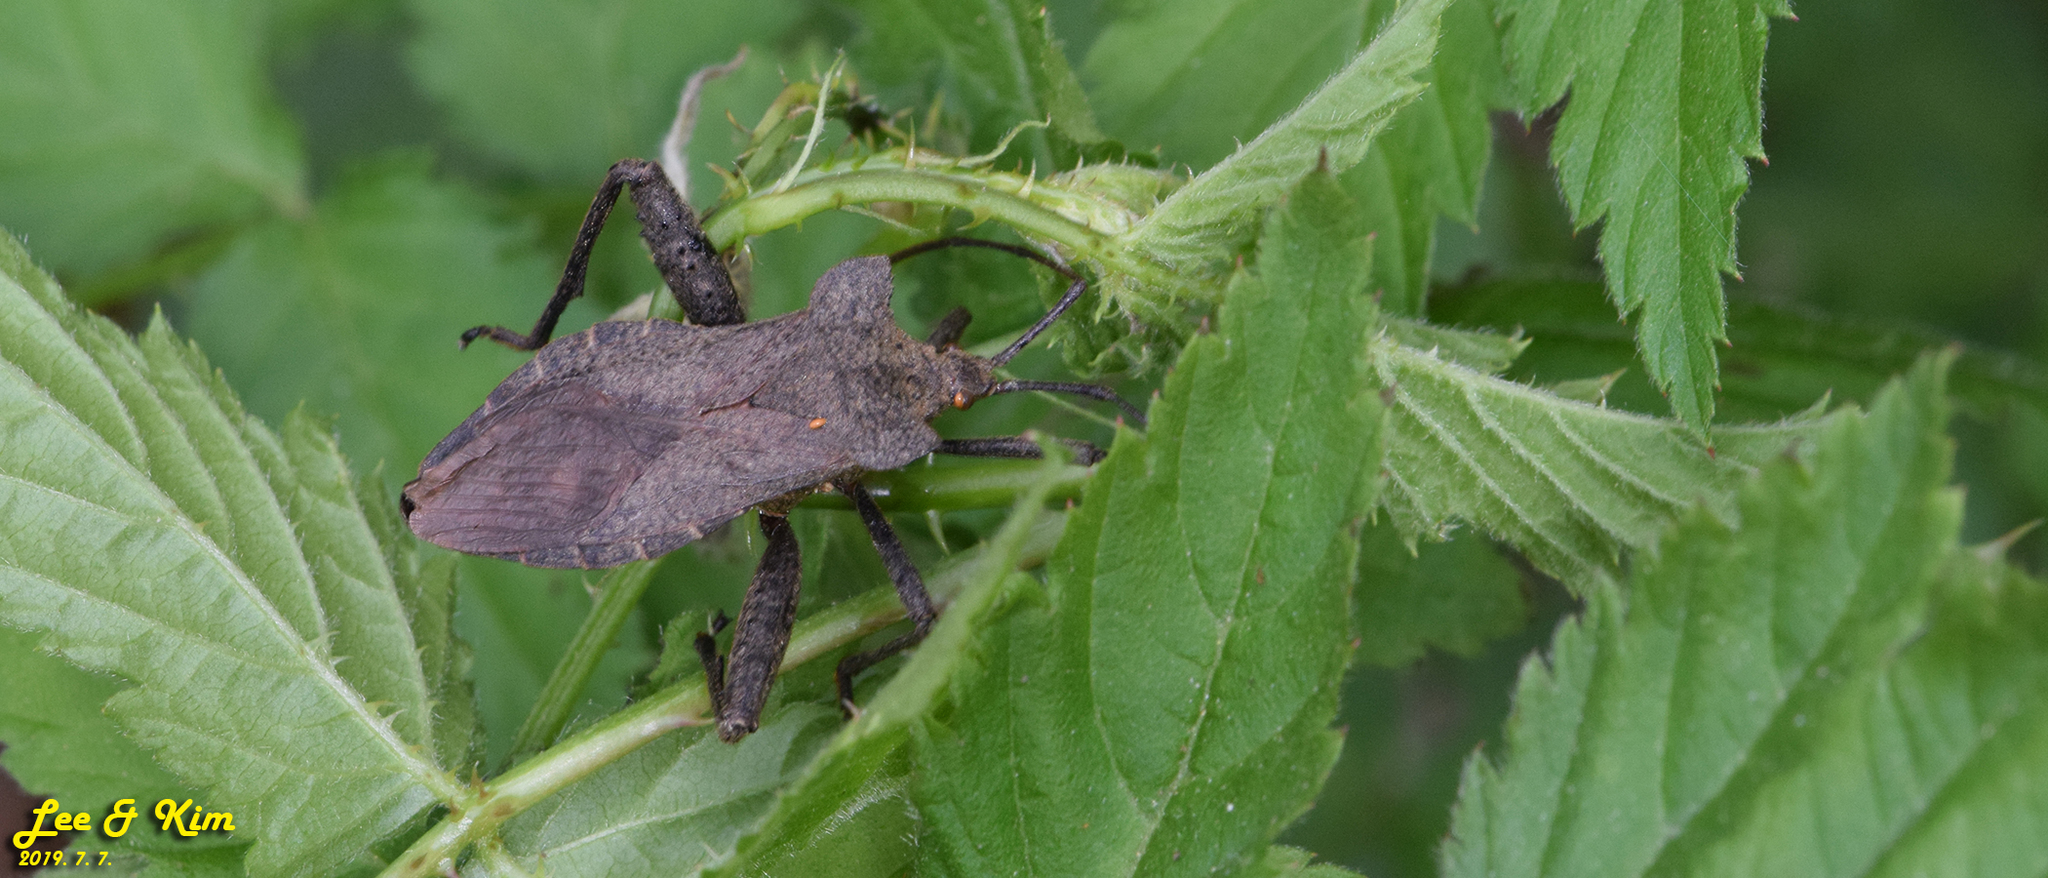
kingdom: Animalia
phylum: Arthropoda
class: Insecta
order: Hemiptera
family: Coreidae
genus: Molipteryx
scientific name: Molipteryx fuliginosa
